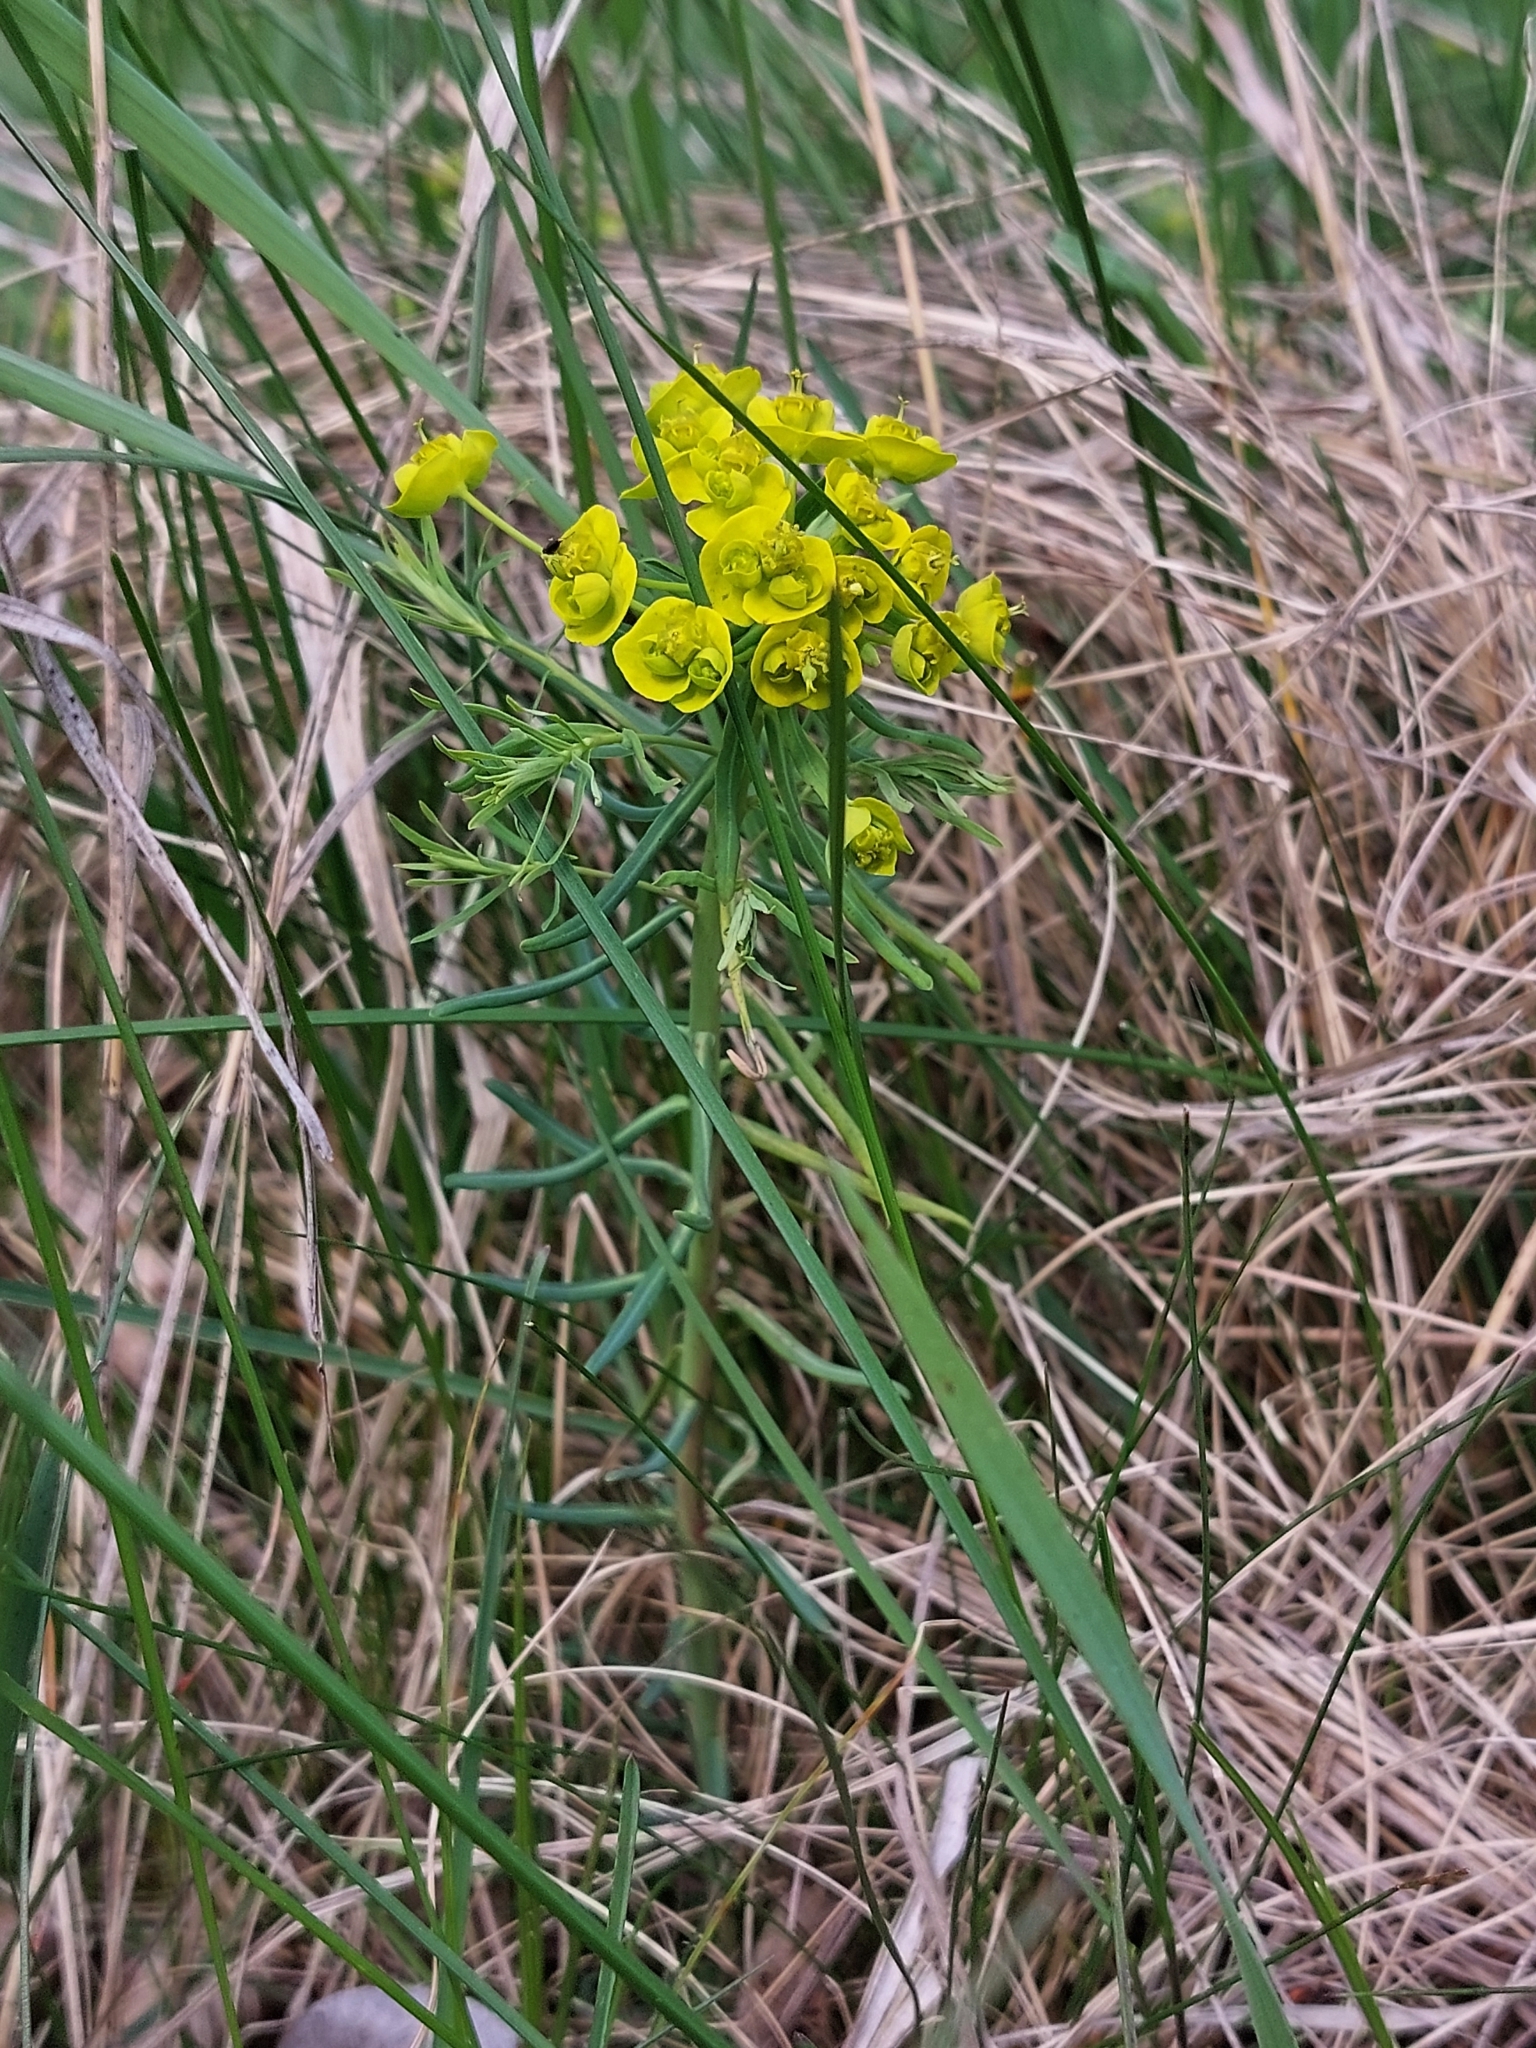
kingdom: Plantae
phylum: Tracheophyta
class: Magnoliopsida
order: Malpighiales
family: Euphorbiaceae
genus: Euphorbia
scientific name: Euphorbia cyparissias
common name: Cypress spurge
